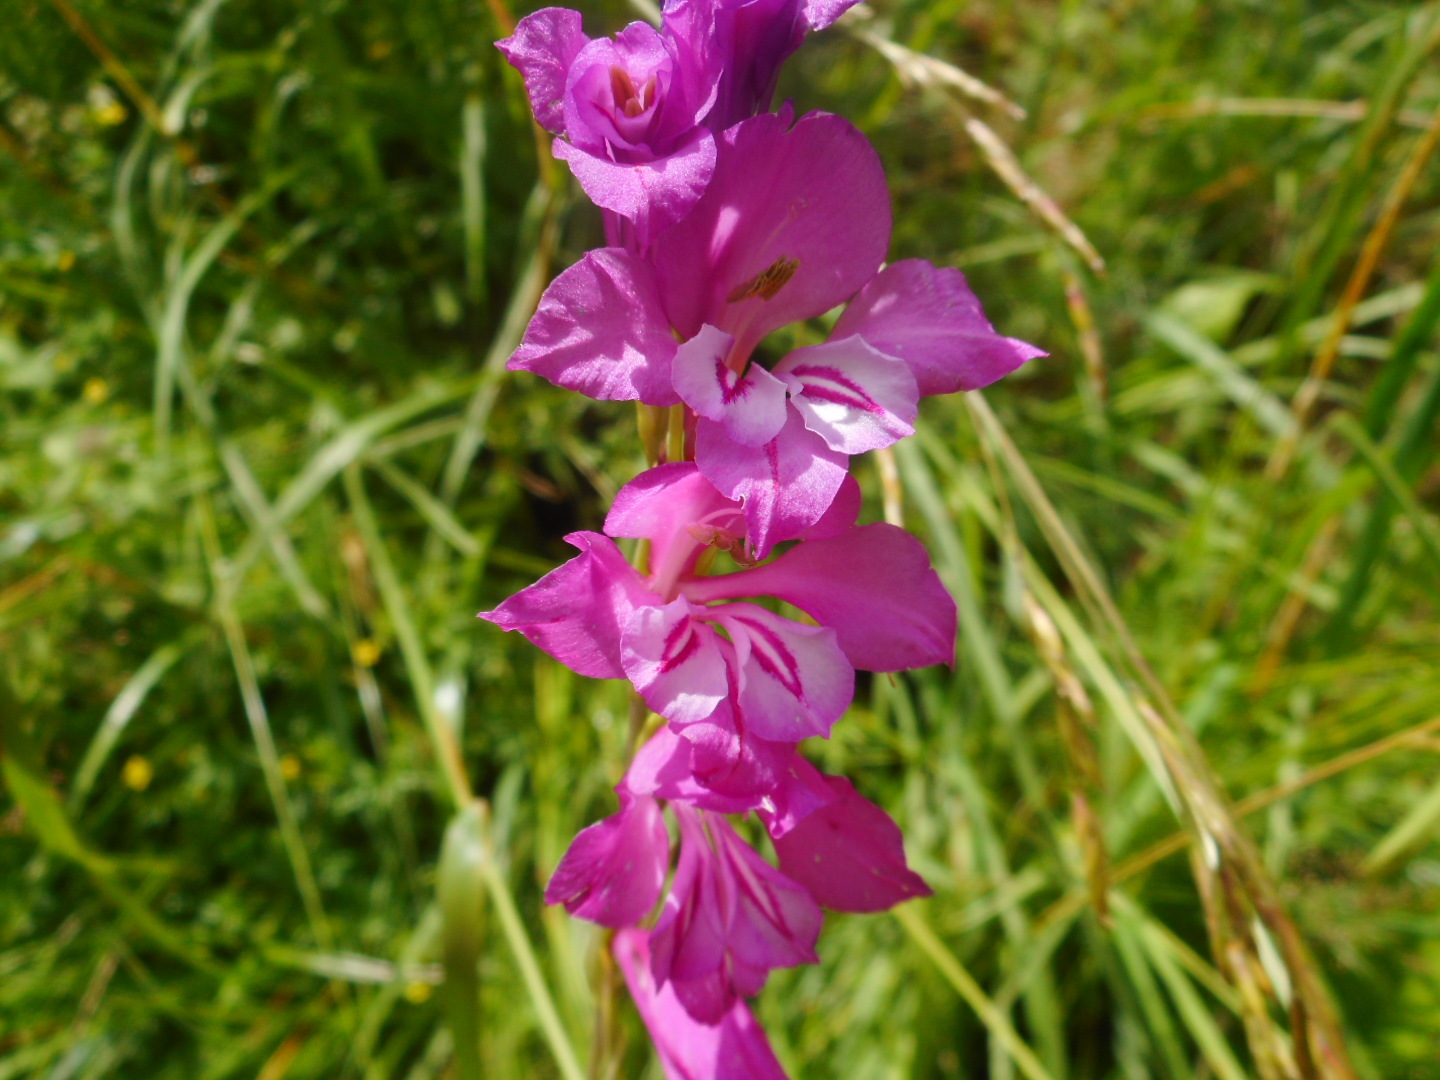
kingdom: Plantae
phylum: Tracheophyta
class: Liliopsida
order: Asparagales
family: Iridaceae
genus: Gladiolus
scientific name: Gladiolus imbricatus
